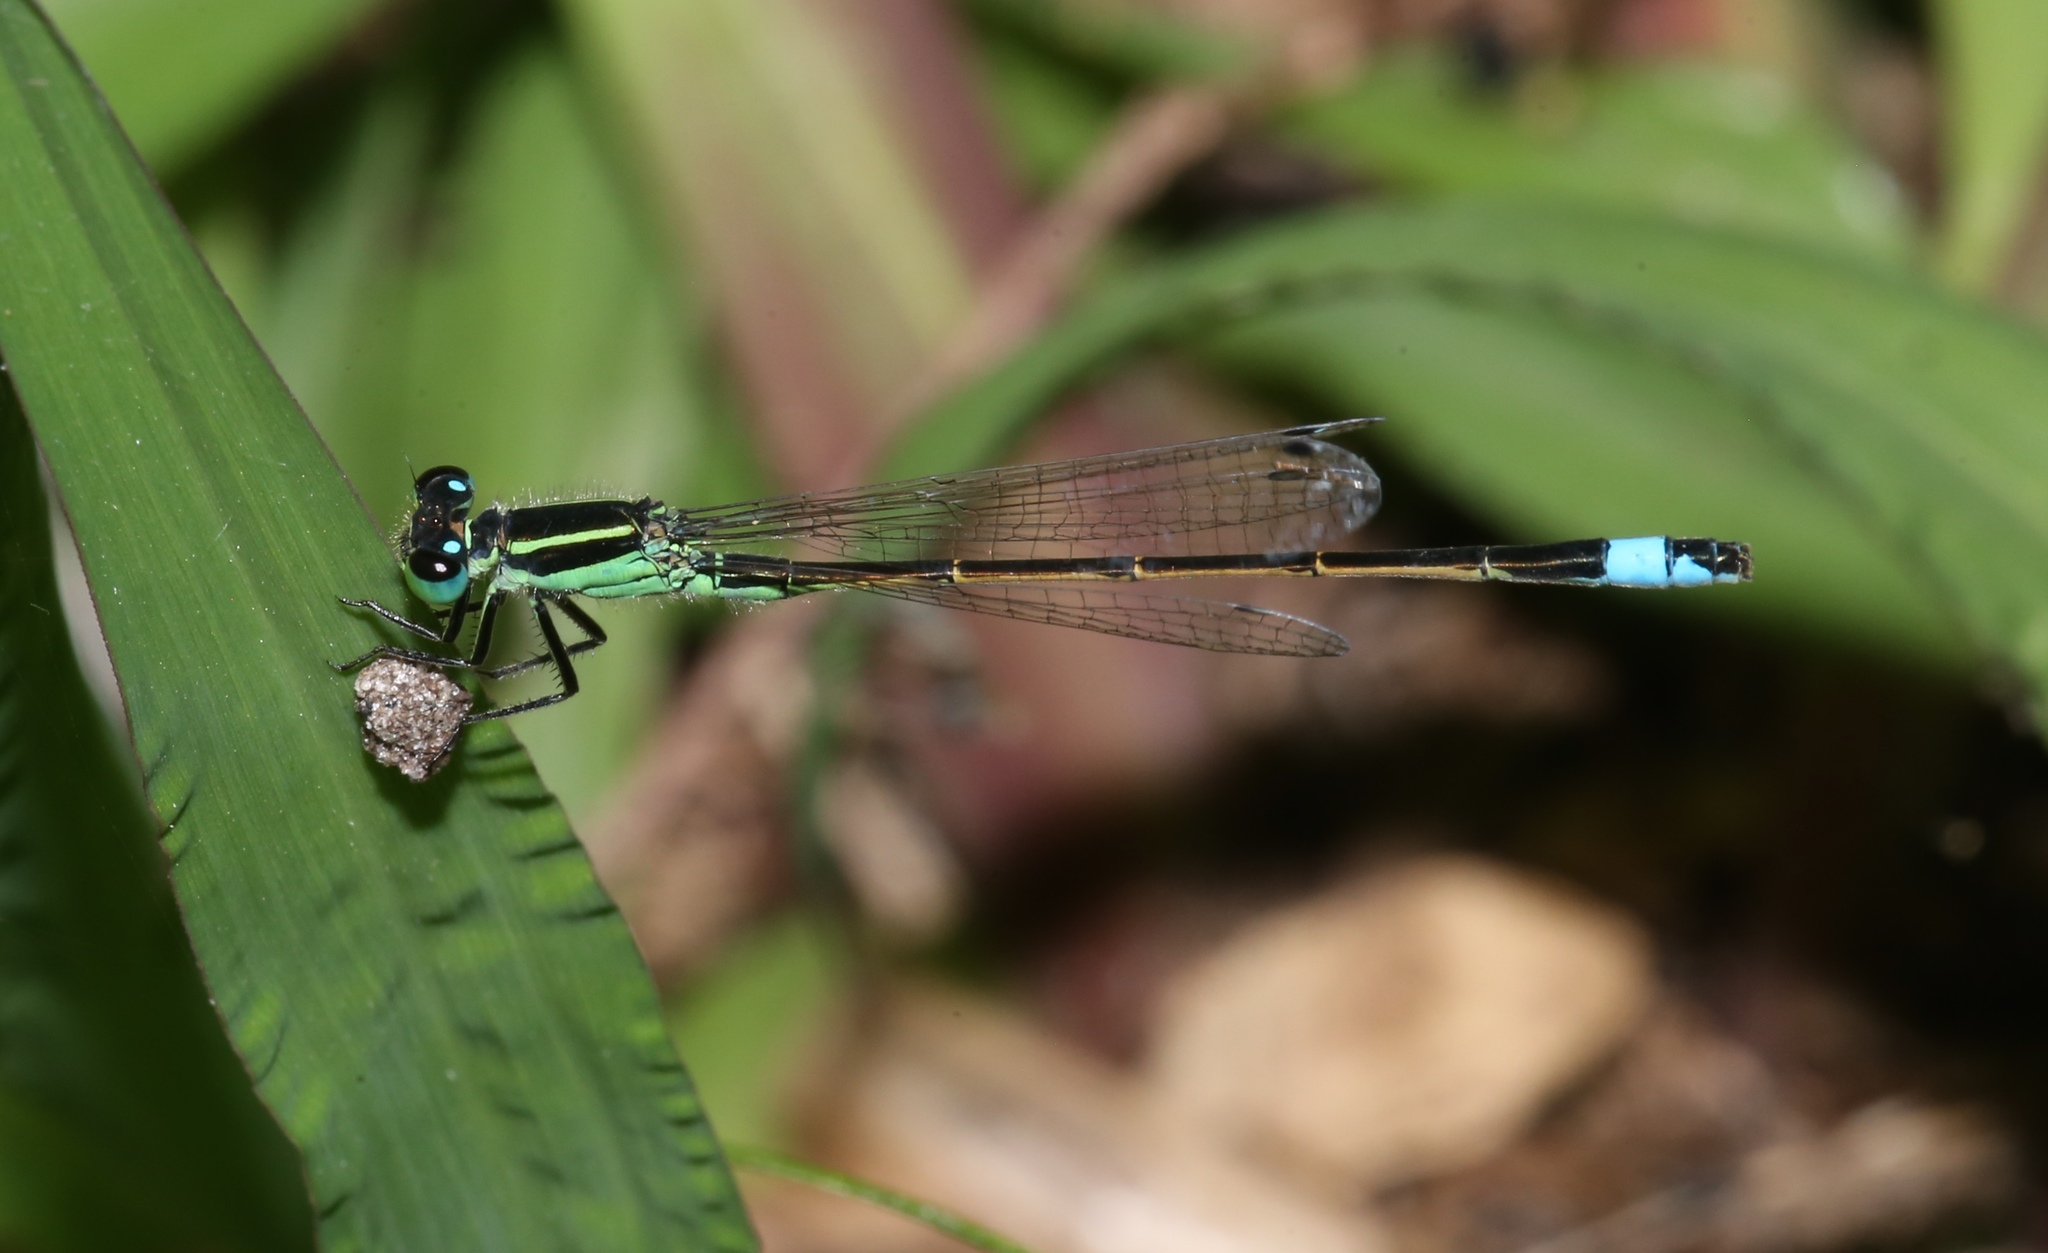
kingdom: Animalia
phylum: Arthropoda
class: Insecta
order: Odonata
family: Coenagrionidae
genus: Ischnura
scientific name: Ischnura ramburii
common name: Rambur's forktail
